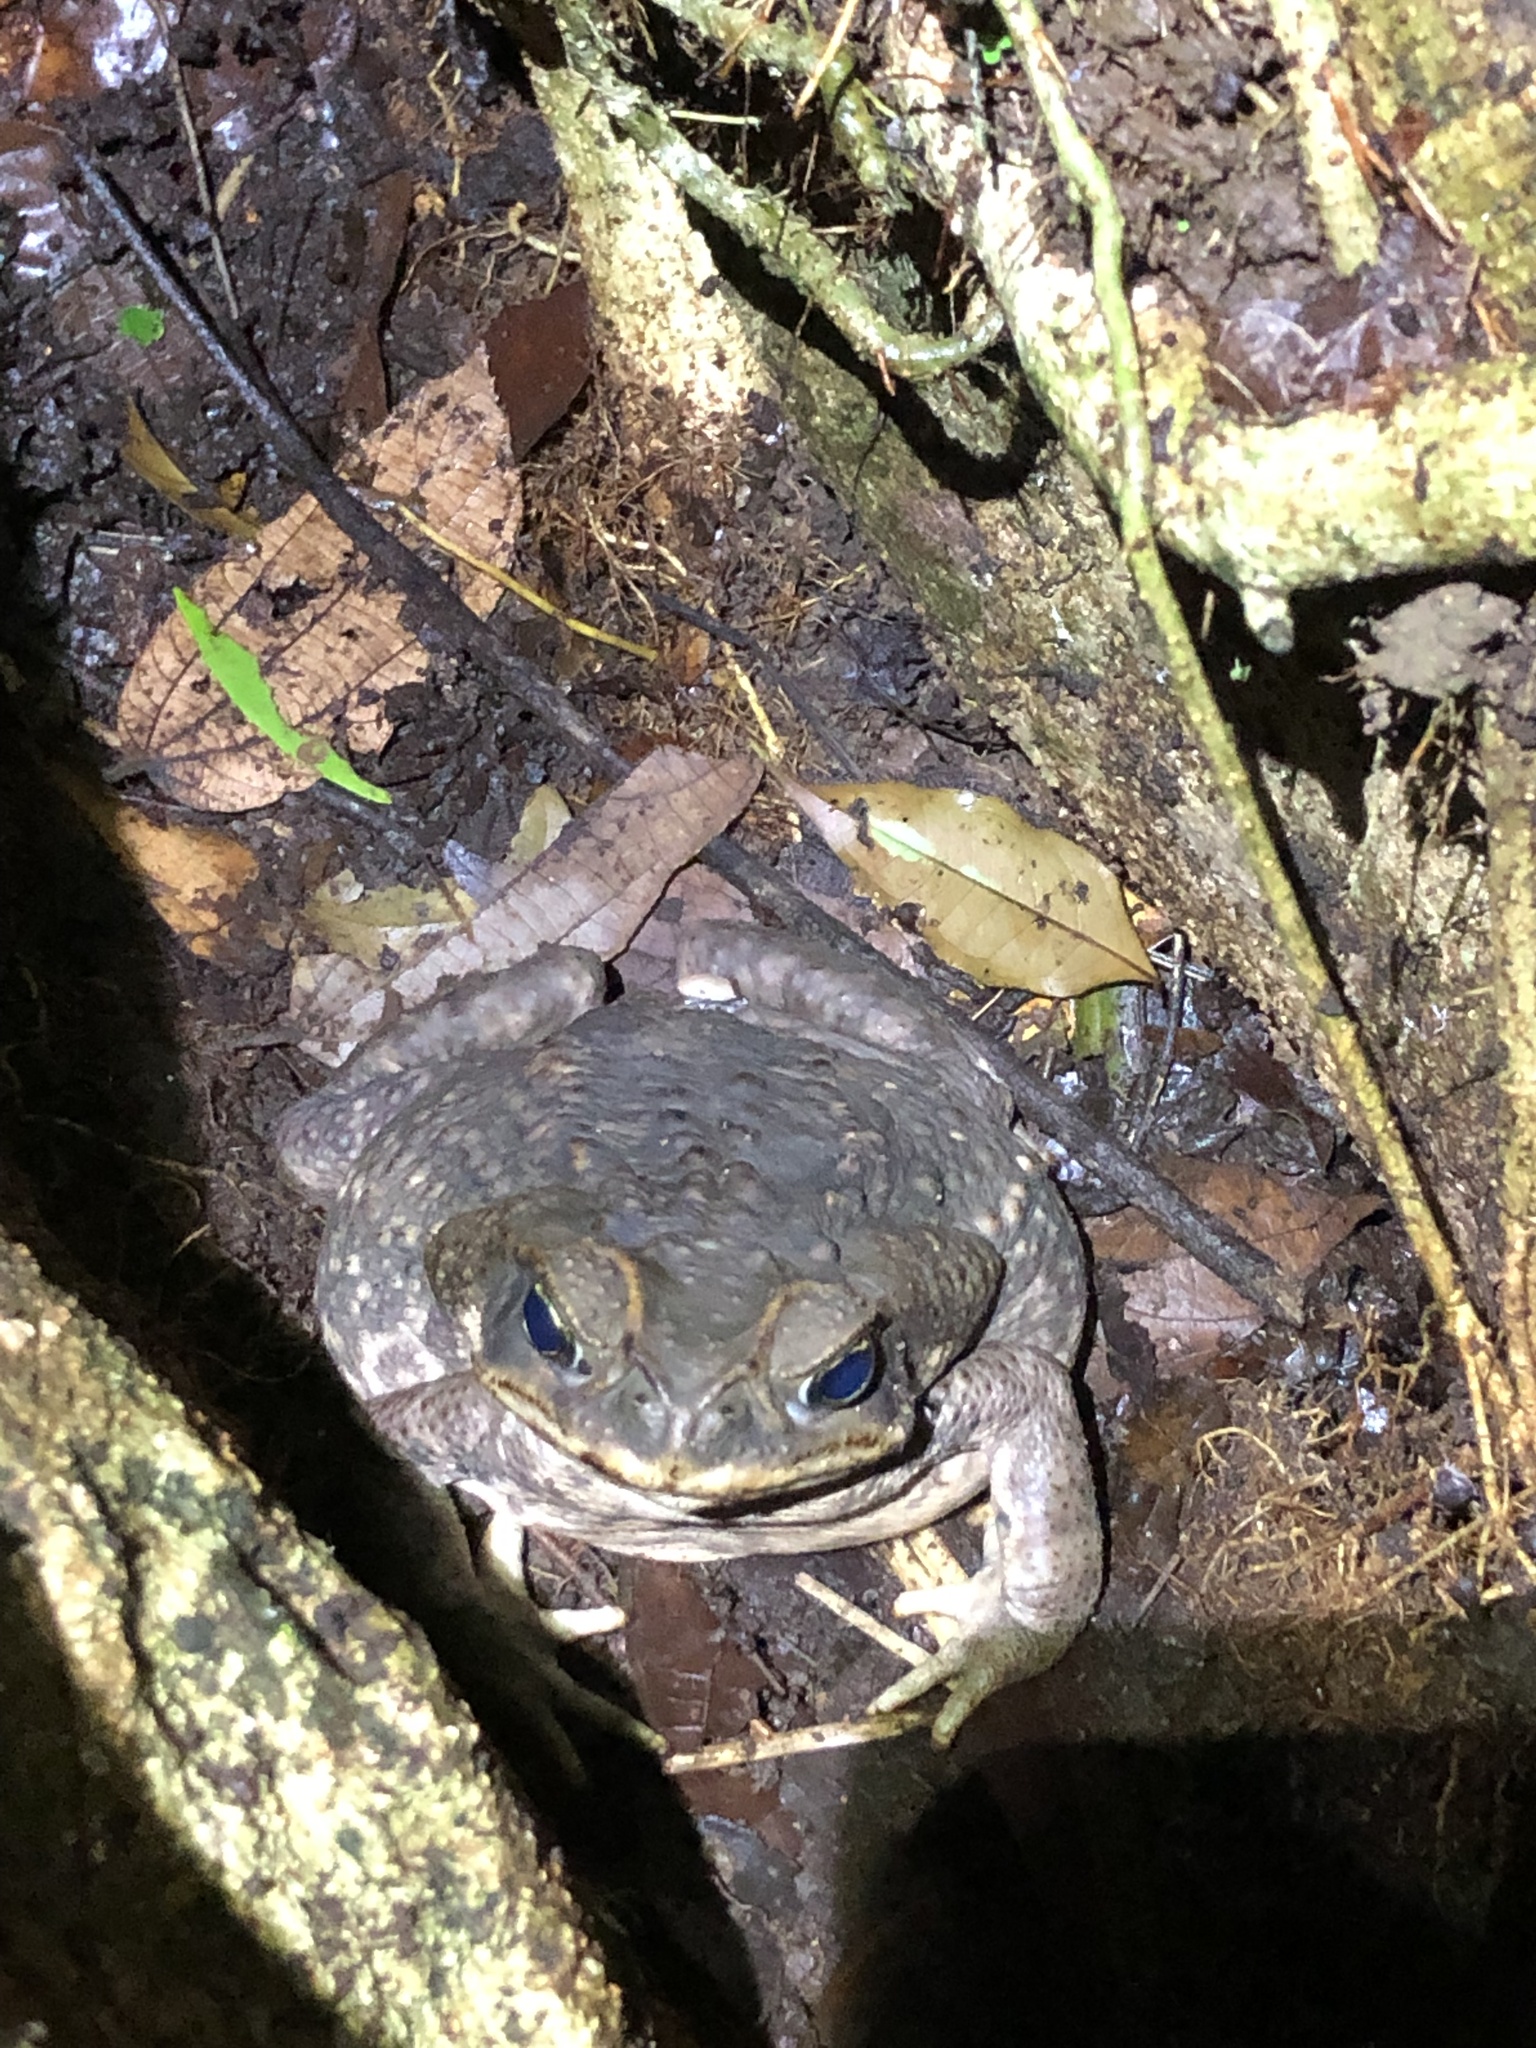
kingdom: Animalia
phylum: Chordata
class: Amphibia
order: Anura
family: Bufonidae
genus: Rhinella
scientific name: Rhinella horribilis
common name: Mesoamerican cane toad
